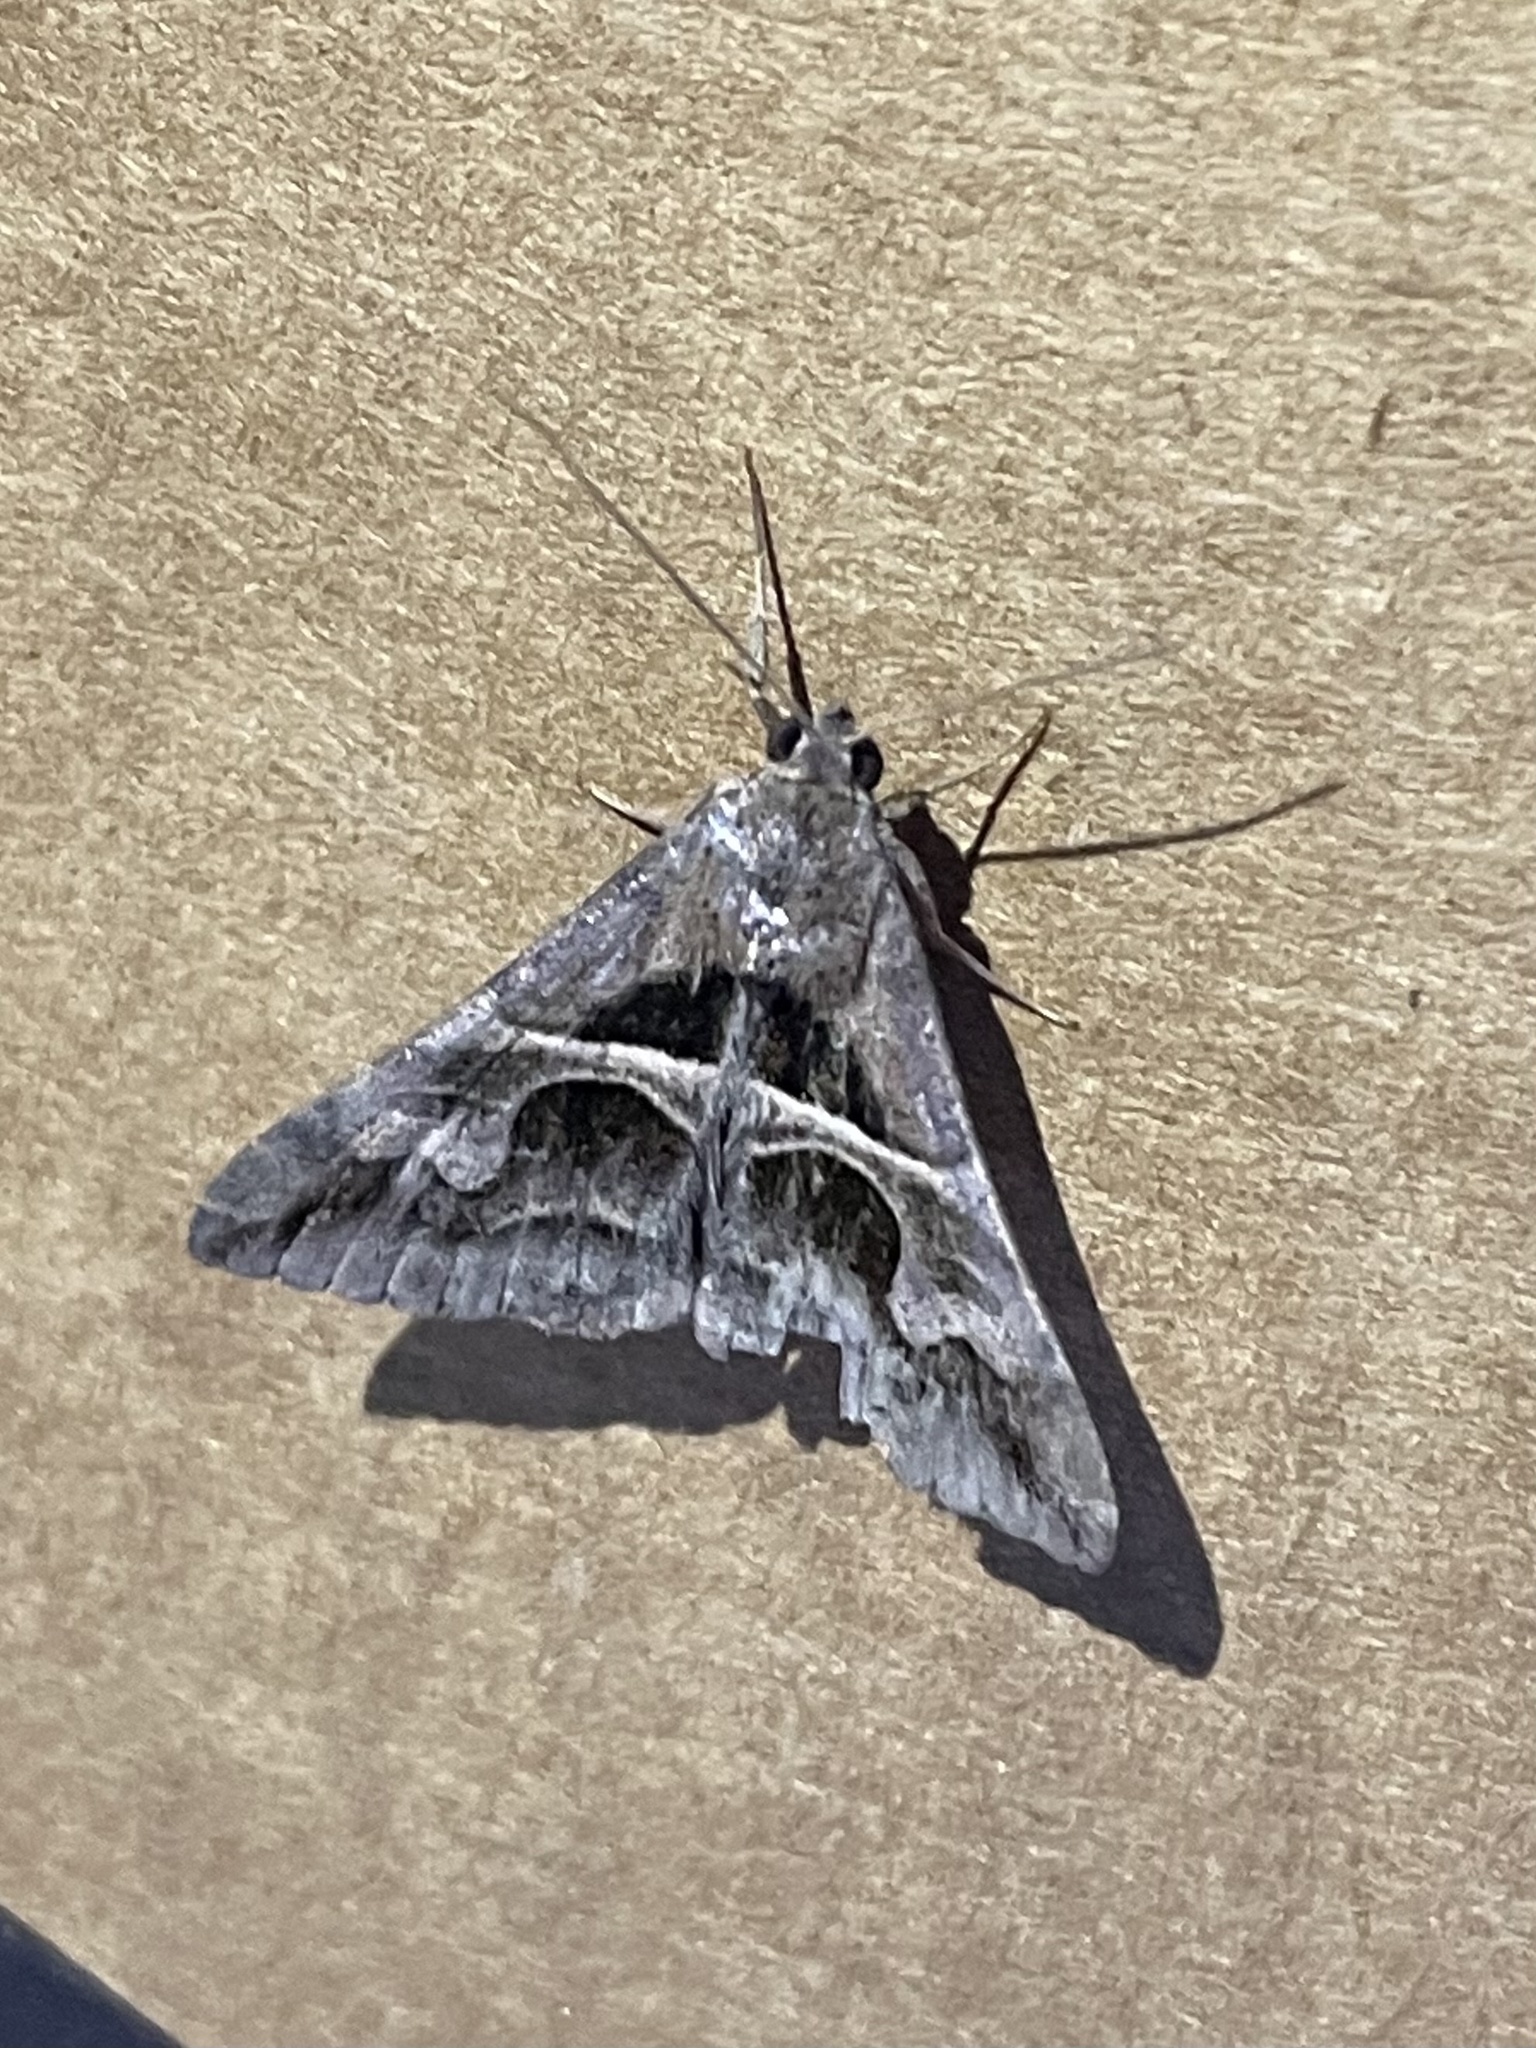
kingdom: Animalia
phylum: Arthropoda
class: Insecta
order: Lepidoptera
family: Erebidae
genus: Melipotis
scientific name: Melipotis cellaris
